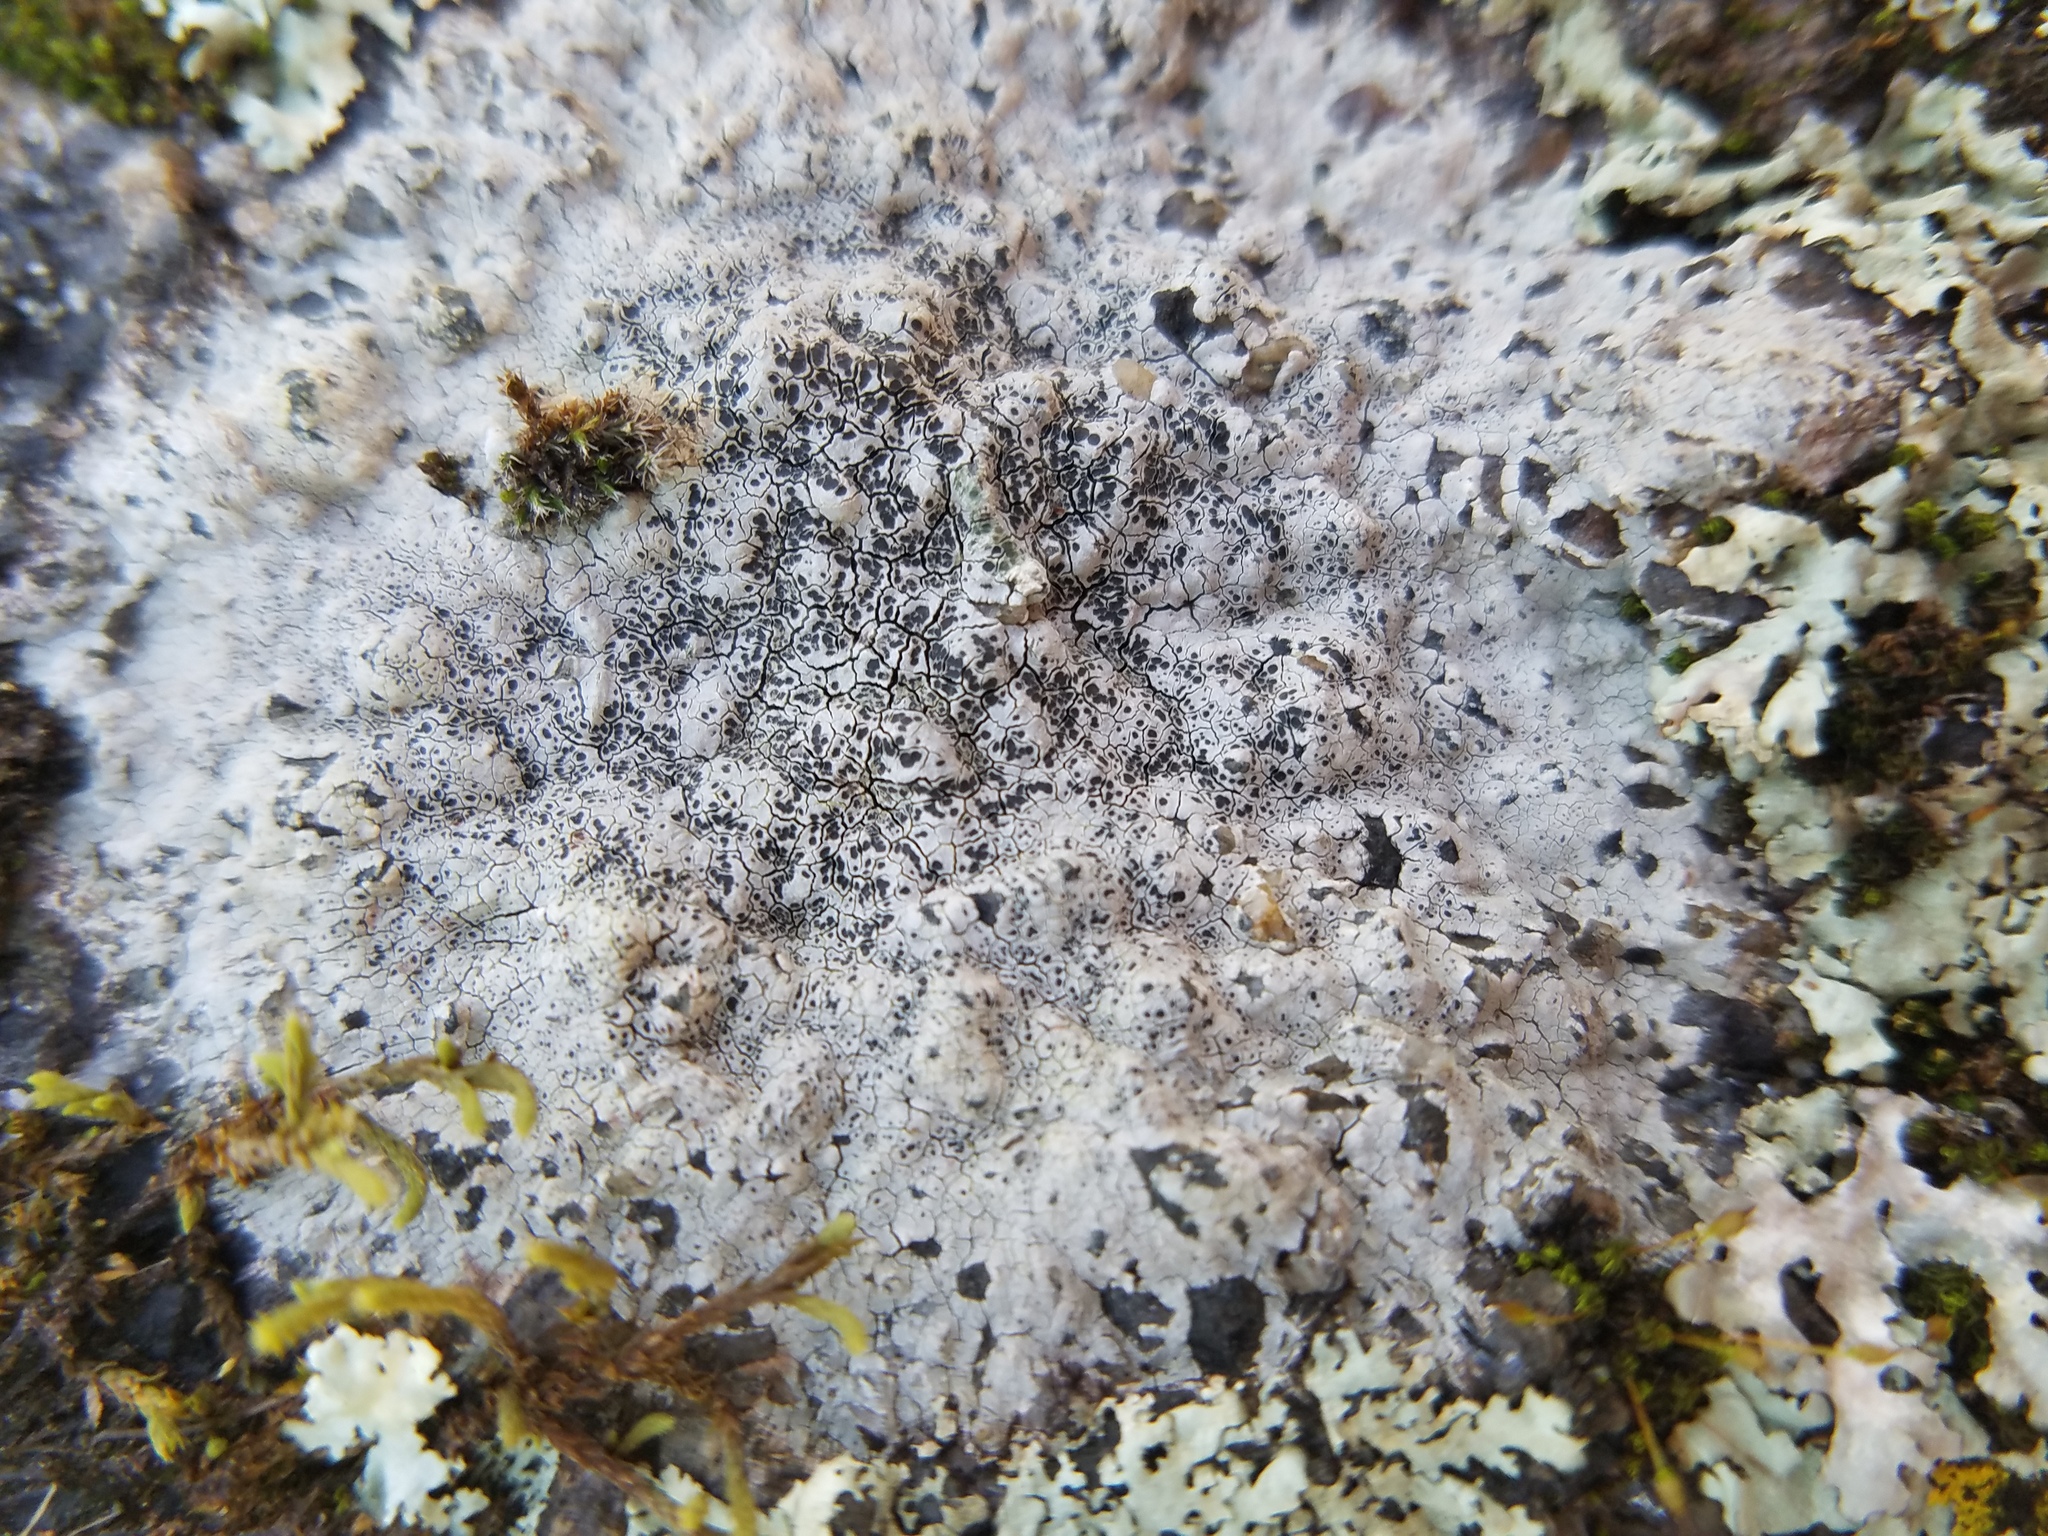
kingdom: Fungi
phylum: Ascomycota
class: Lecanoromycetes
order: Lecanorales
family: Lecanoraceae
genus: Lecanora
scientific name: Lecanora oreinoides
